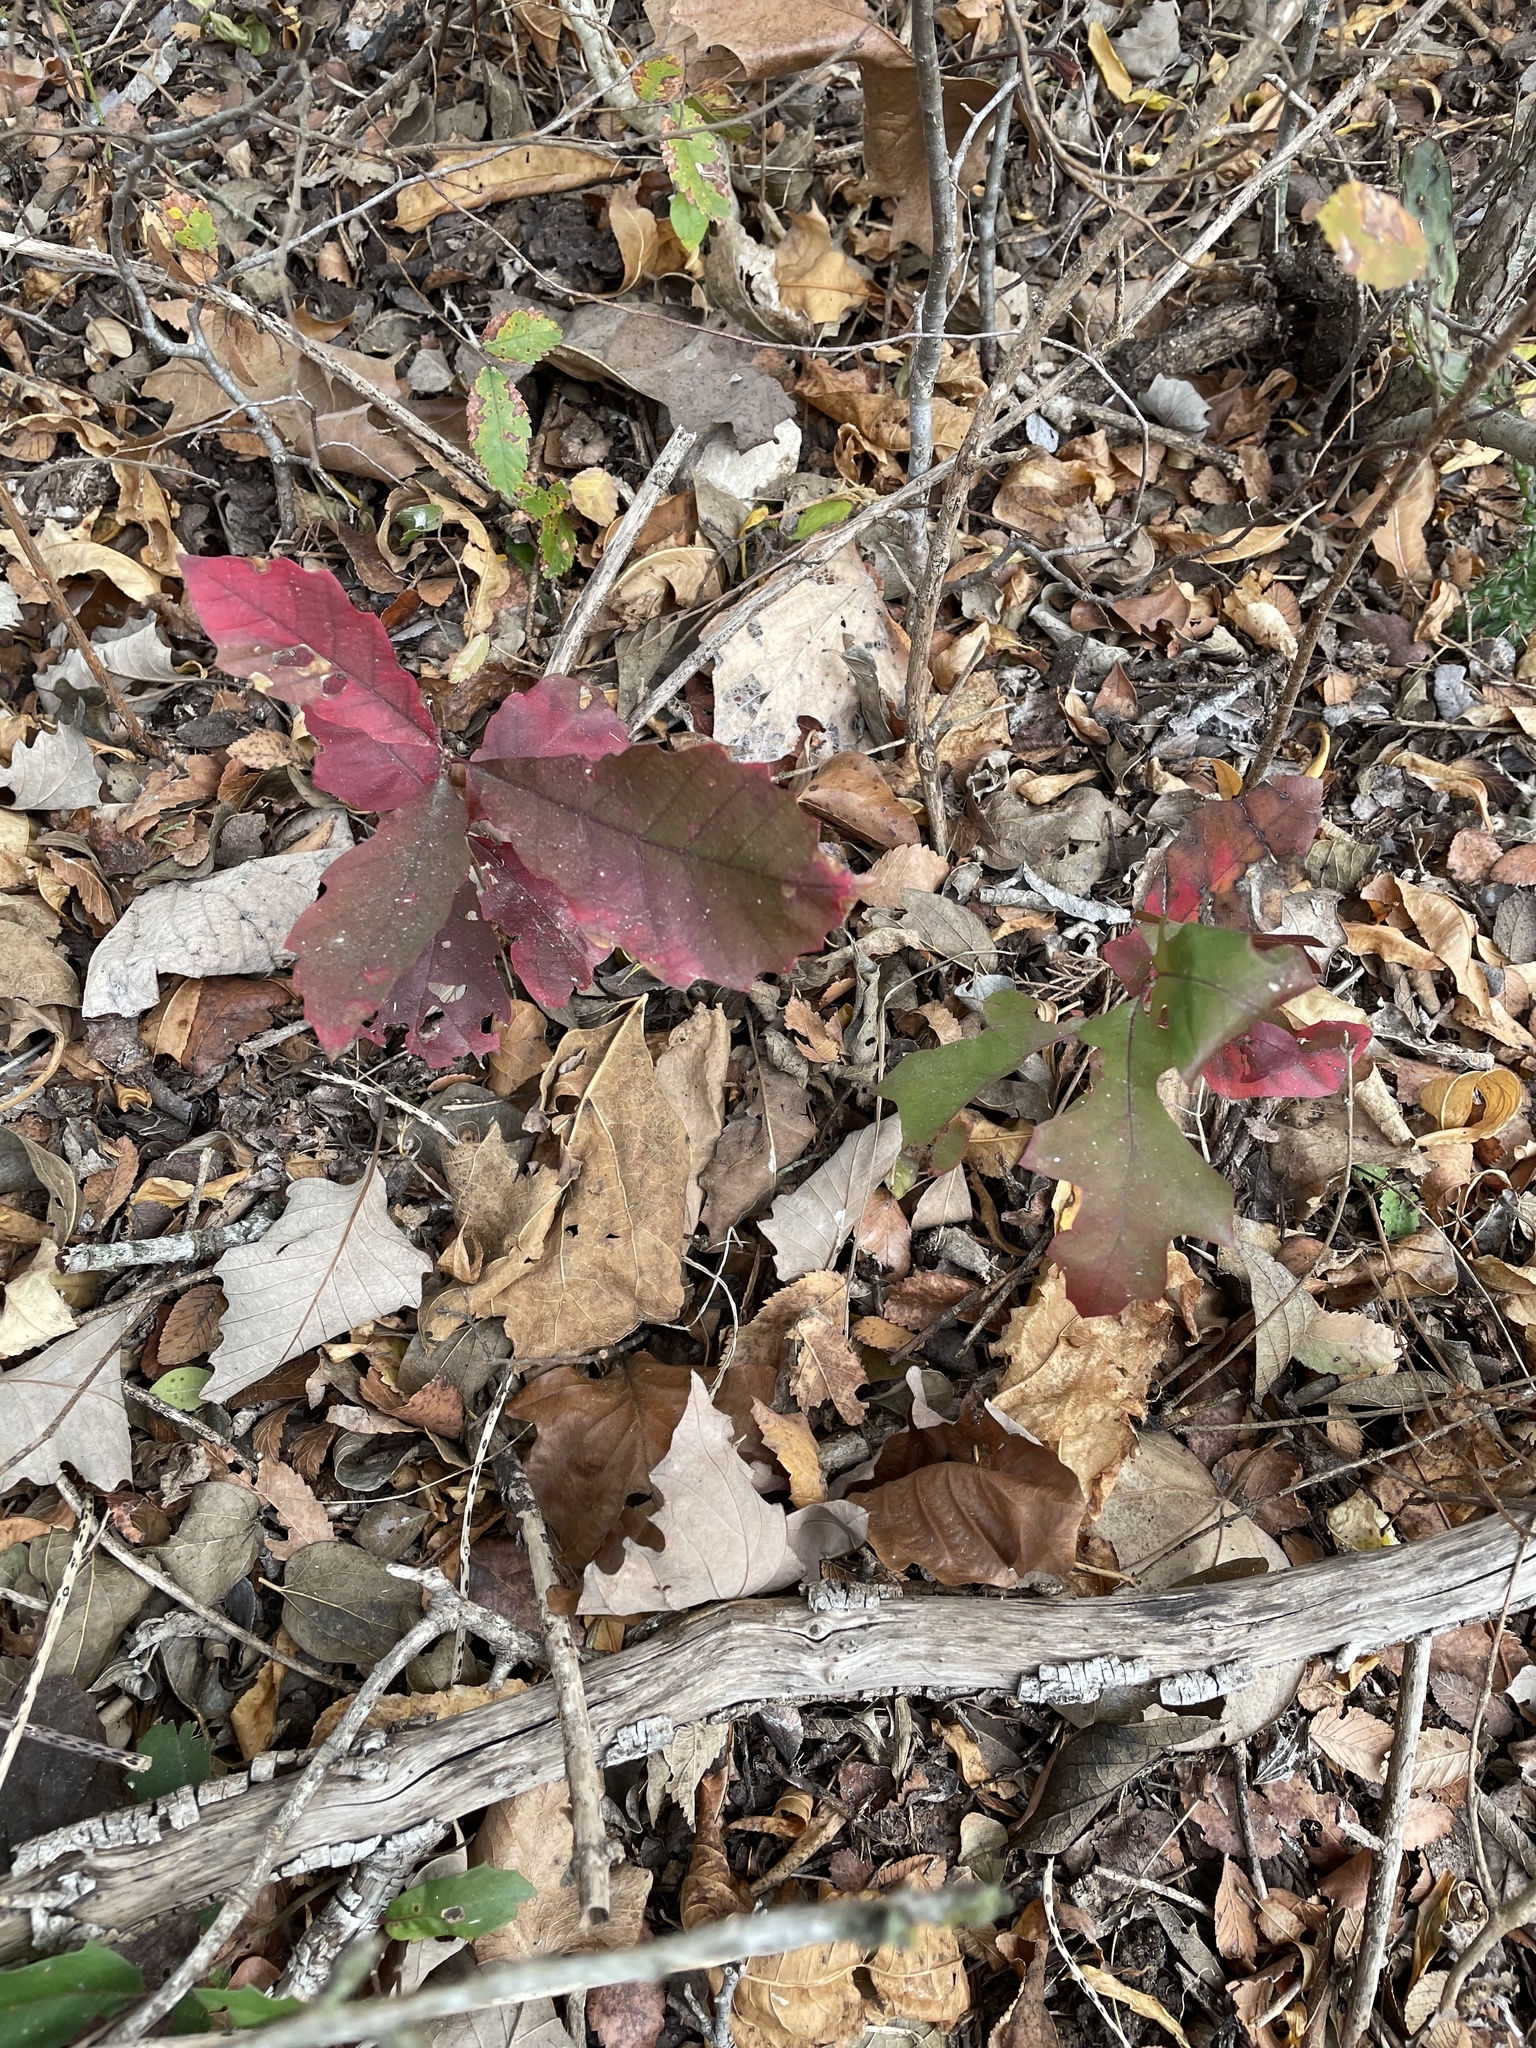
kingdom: Plantae
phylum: Tracheophyta
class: Magnoliopsida
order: Fagales
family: Fagaceae
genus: Quercus
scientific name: Quercus muehlenbergii
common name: Chinkapin oak
